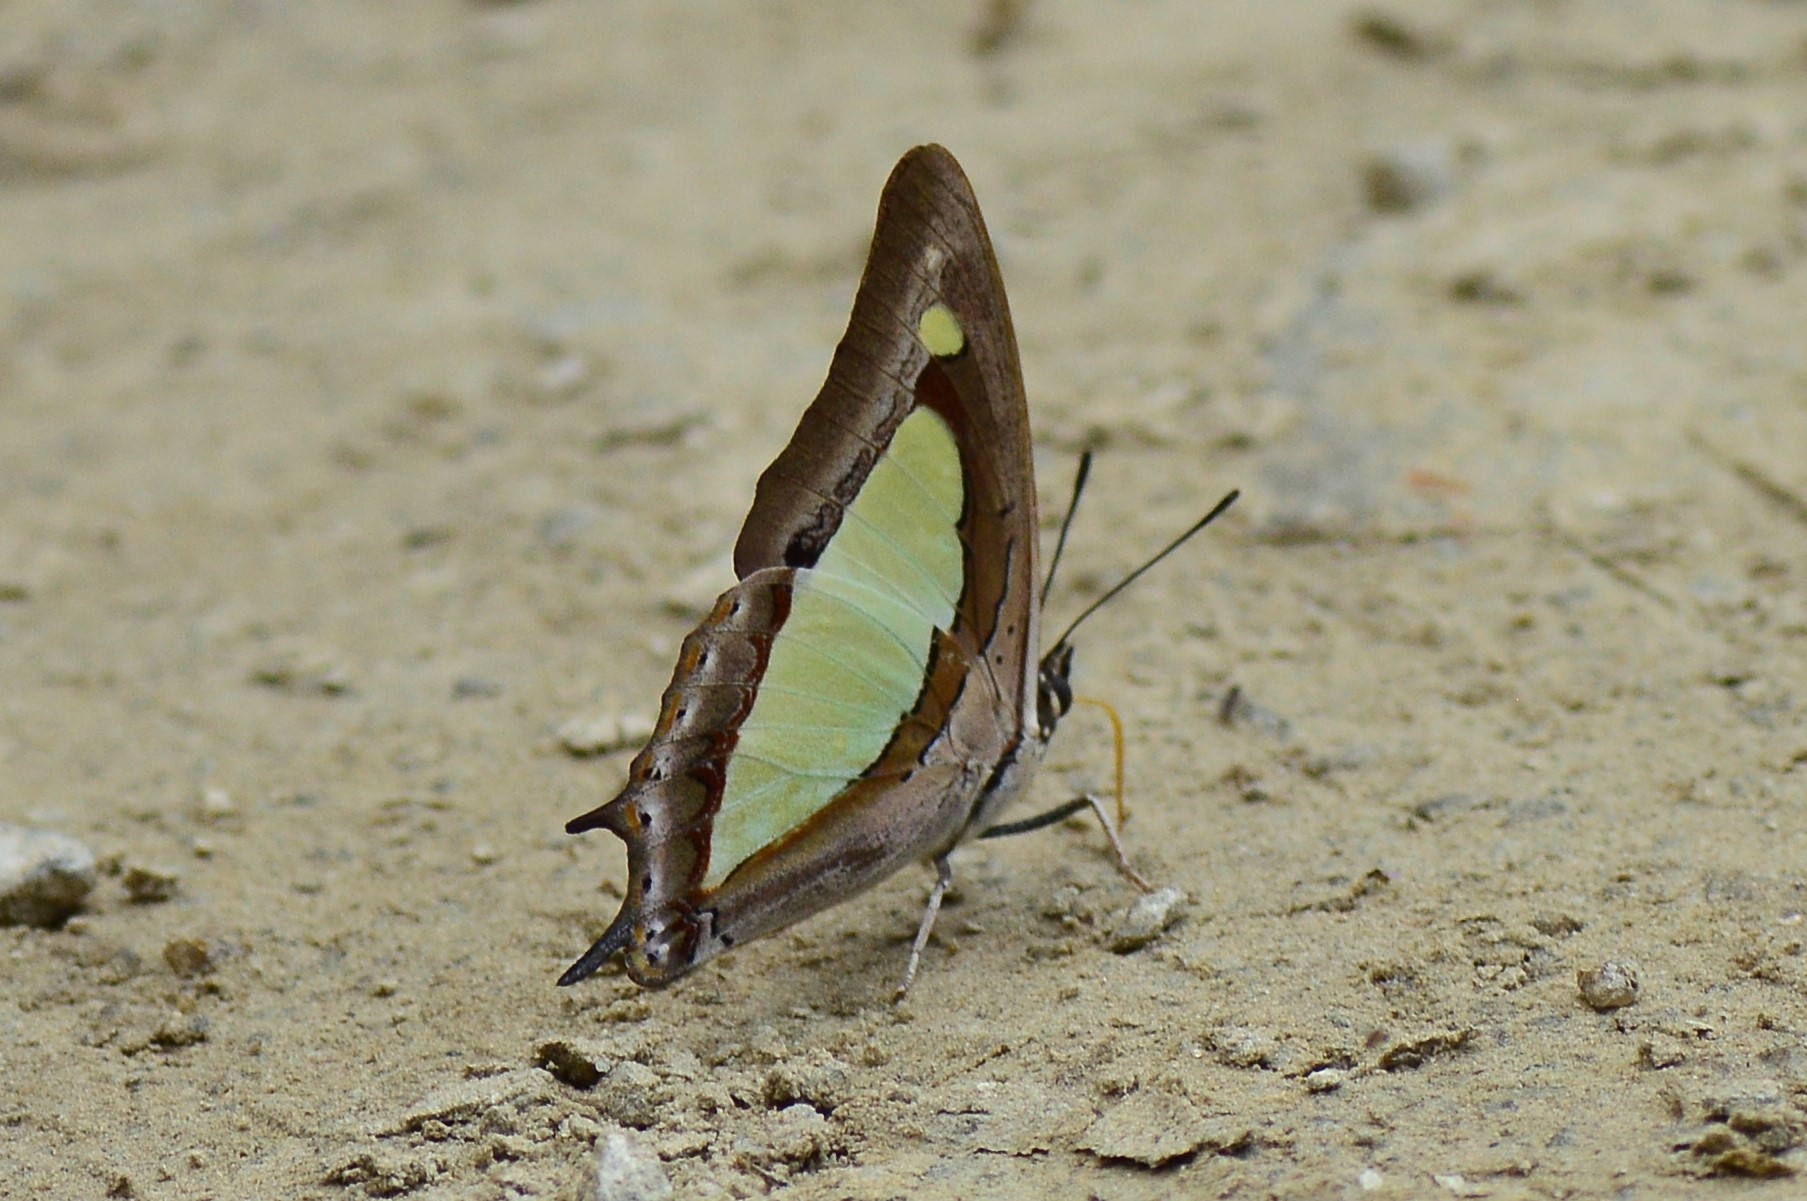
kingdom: Animalia
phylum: Arthropoda
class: Insecta
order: Lepidoptera
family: Nymphalidae
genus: Polyura
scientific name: Polyura
